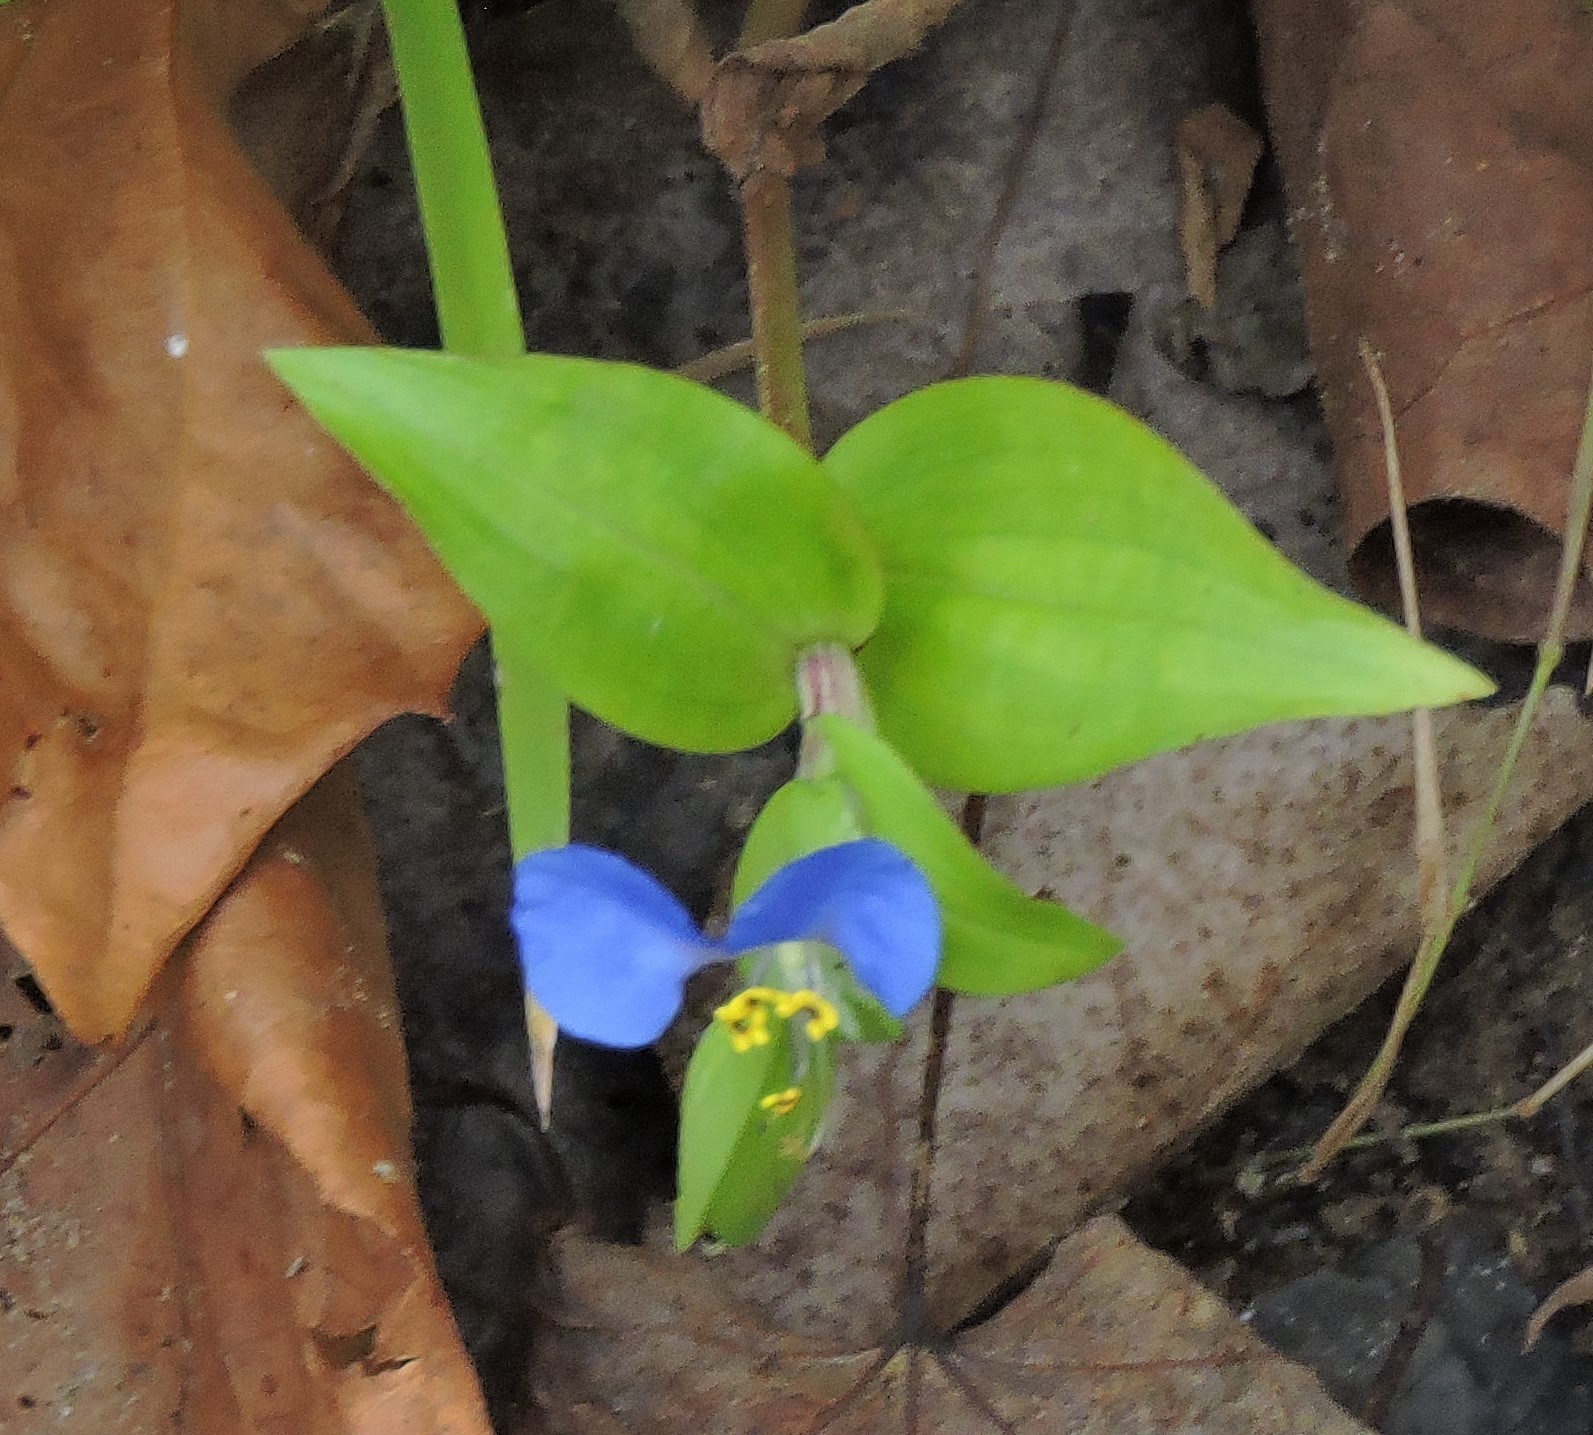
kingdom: Plantae
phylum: Tracheophyta
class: Liliopsida
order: Commelinales
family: Commelinaceae
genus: Commelina
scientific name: Commelina communis
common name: Asiatic dayflower
